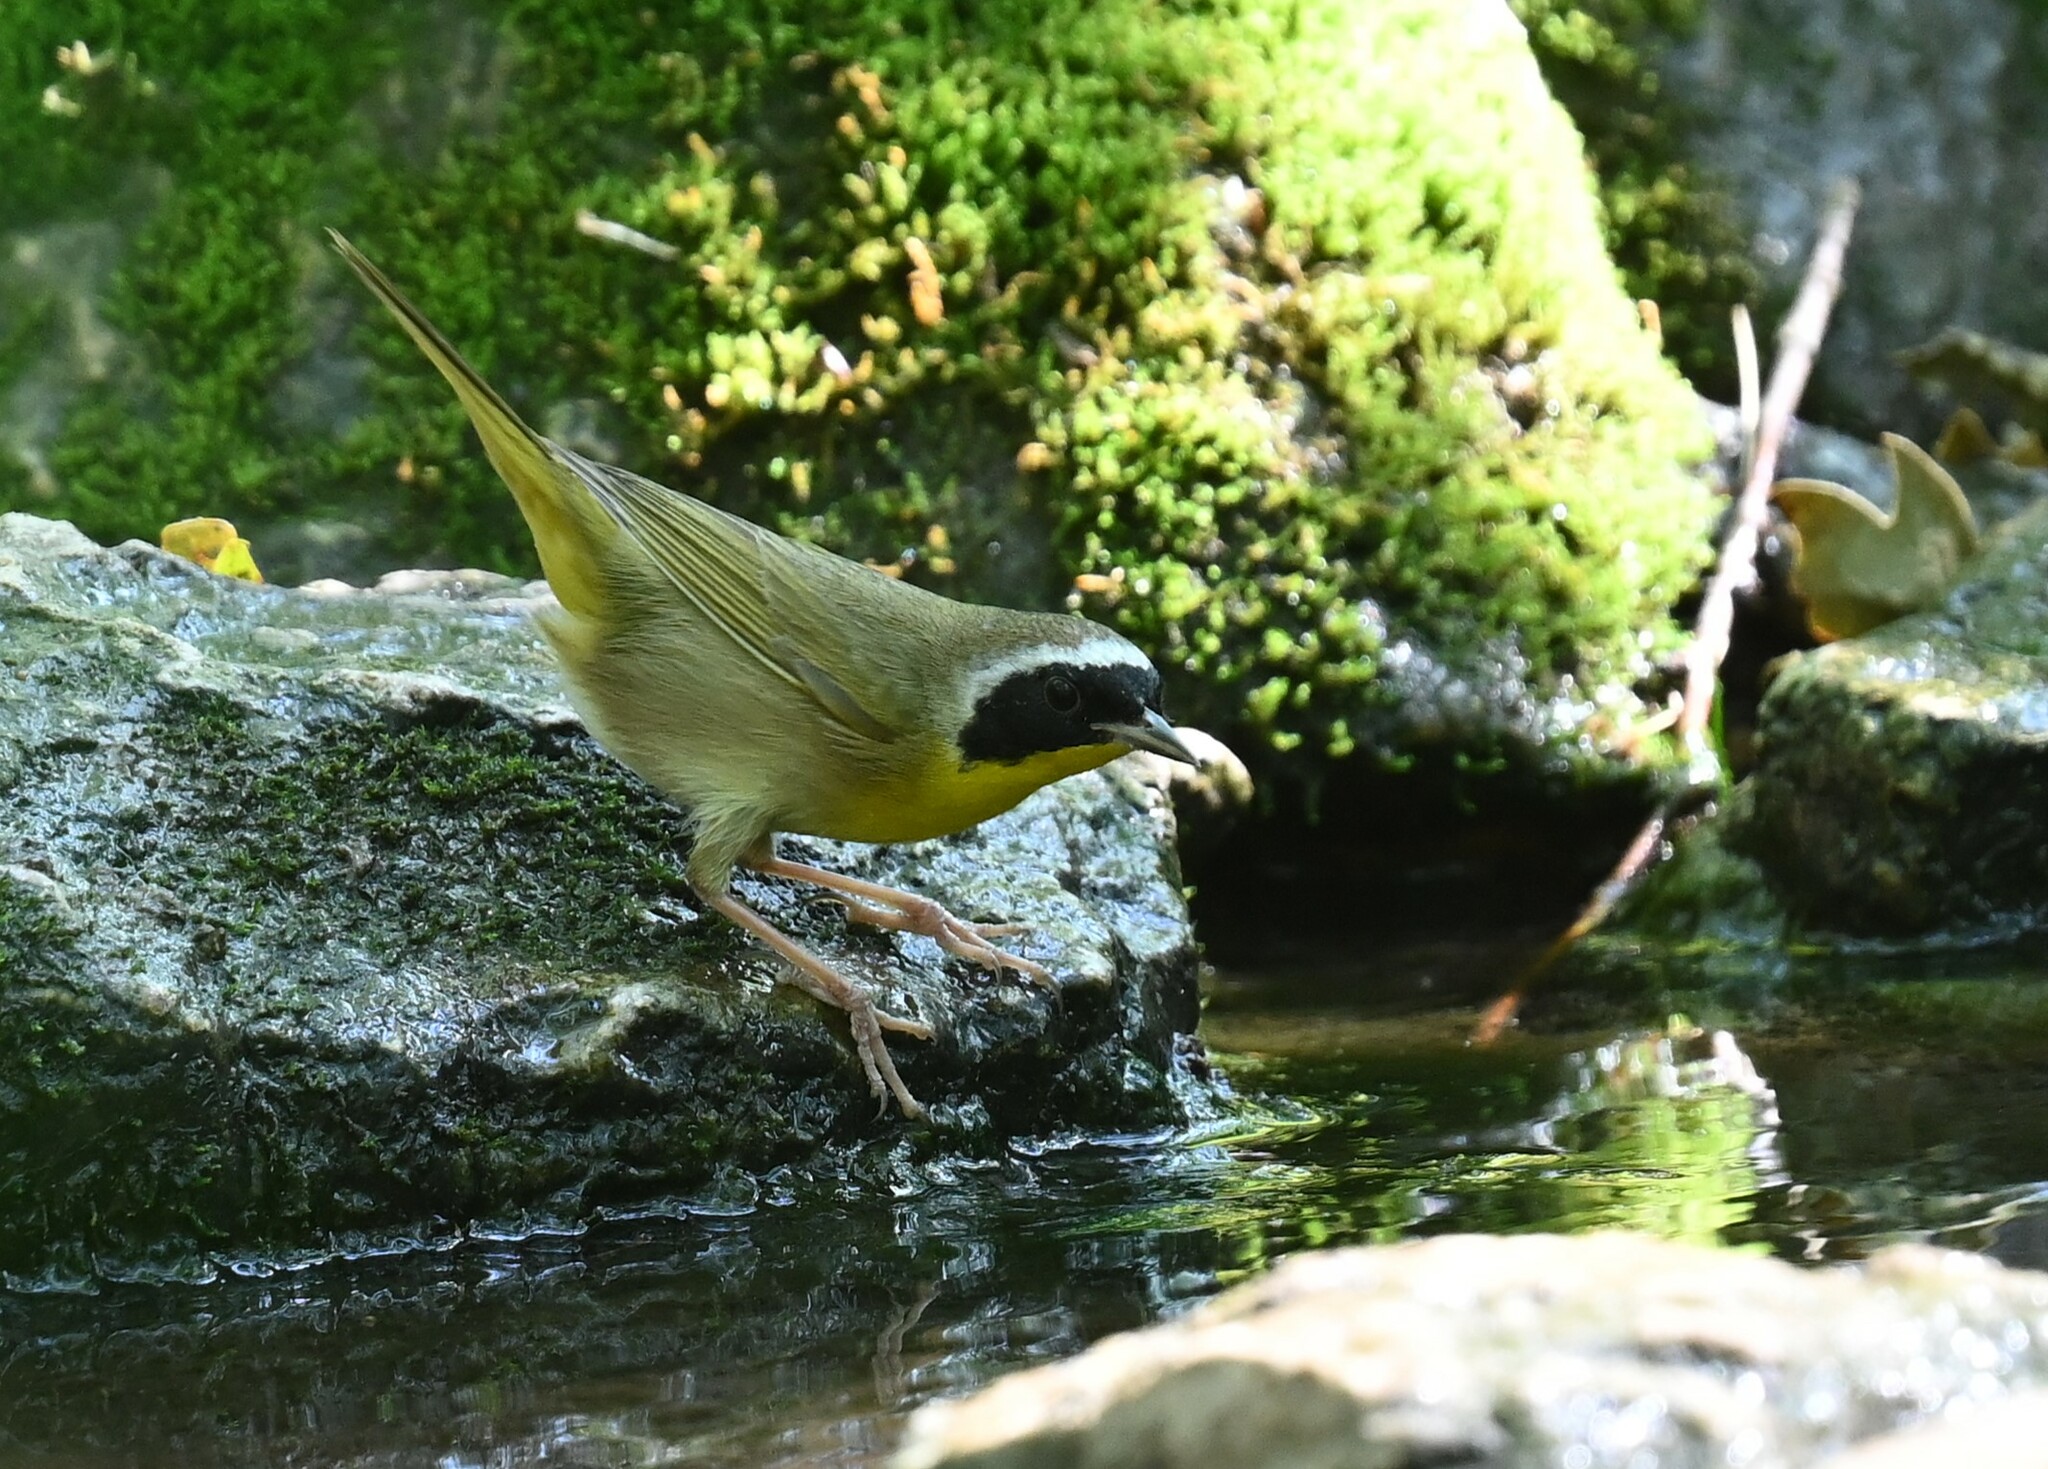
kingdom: Animalia
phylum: Chordata
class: Aves
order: Passeriformes
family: Parulidae
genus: Geothlypis
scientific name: Geothlypis trichas
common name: Common yellowthroat
